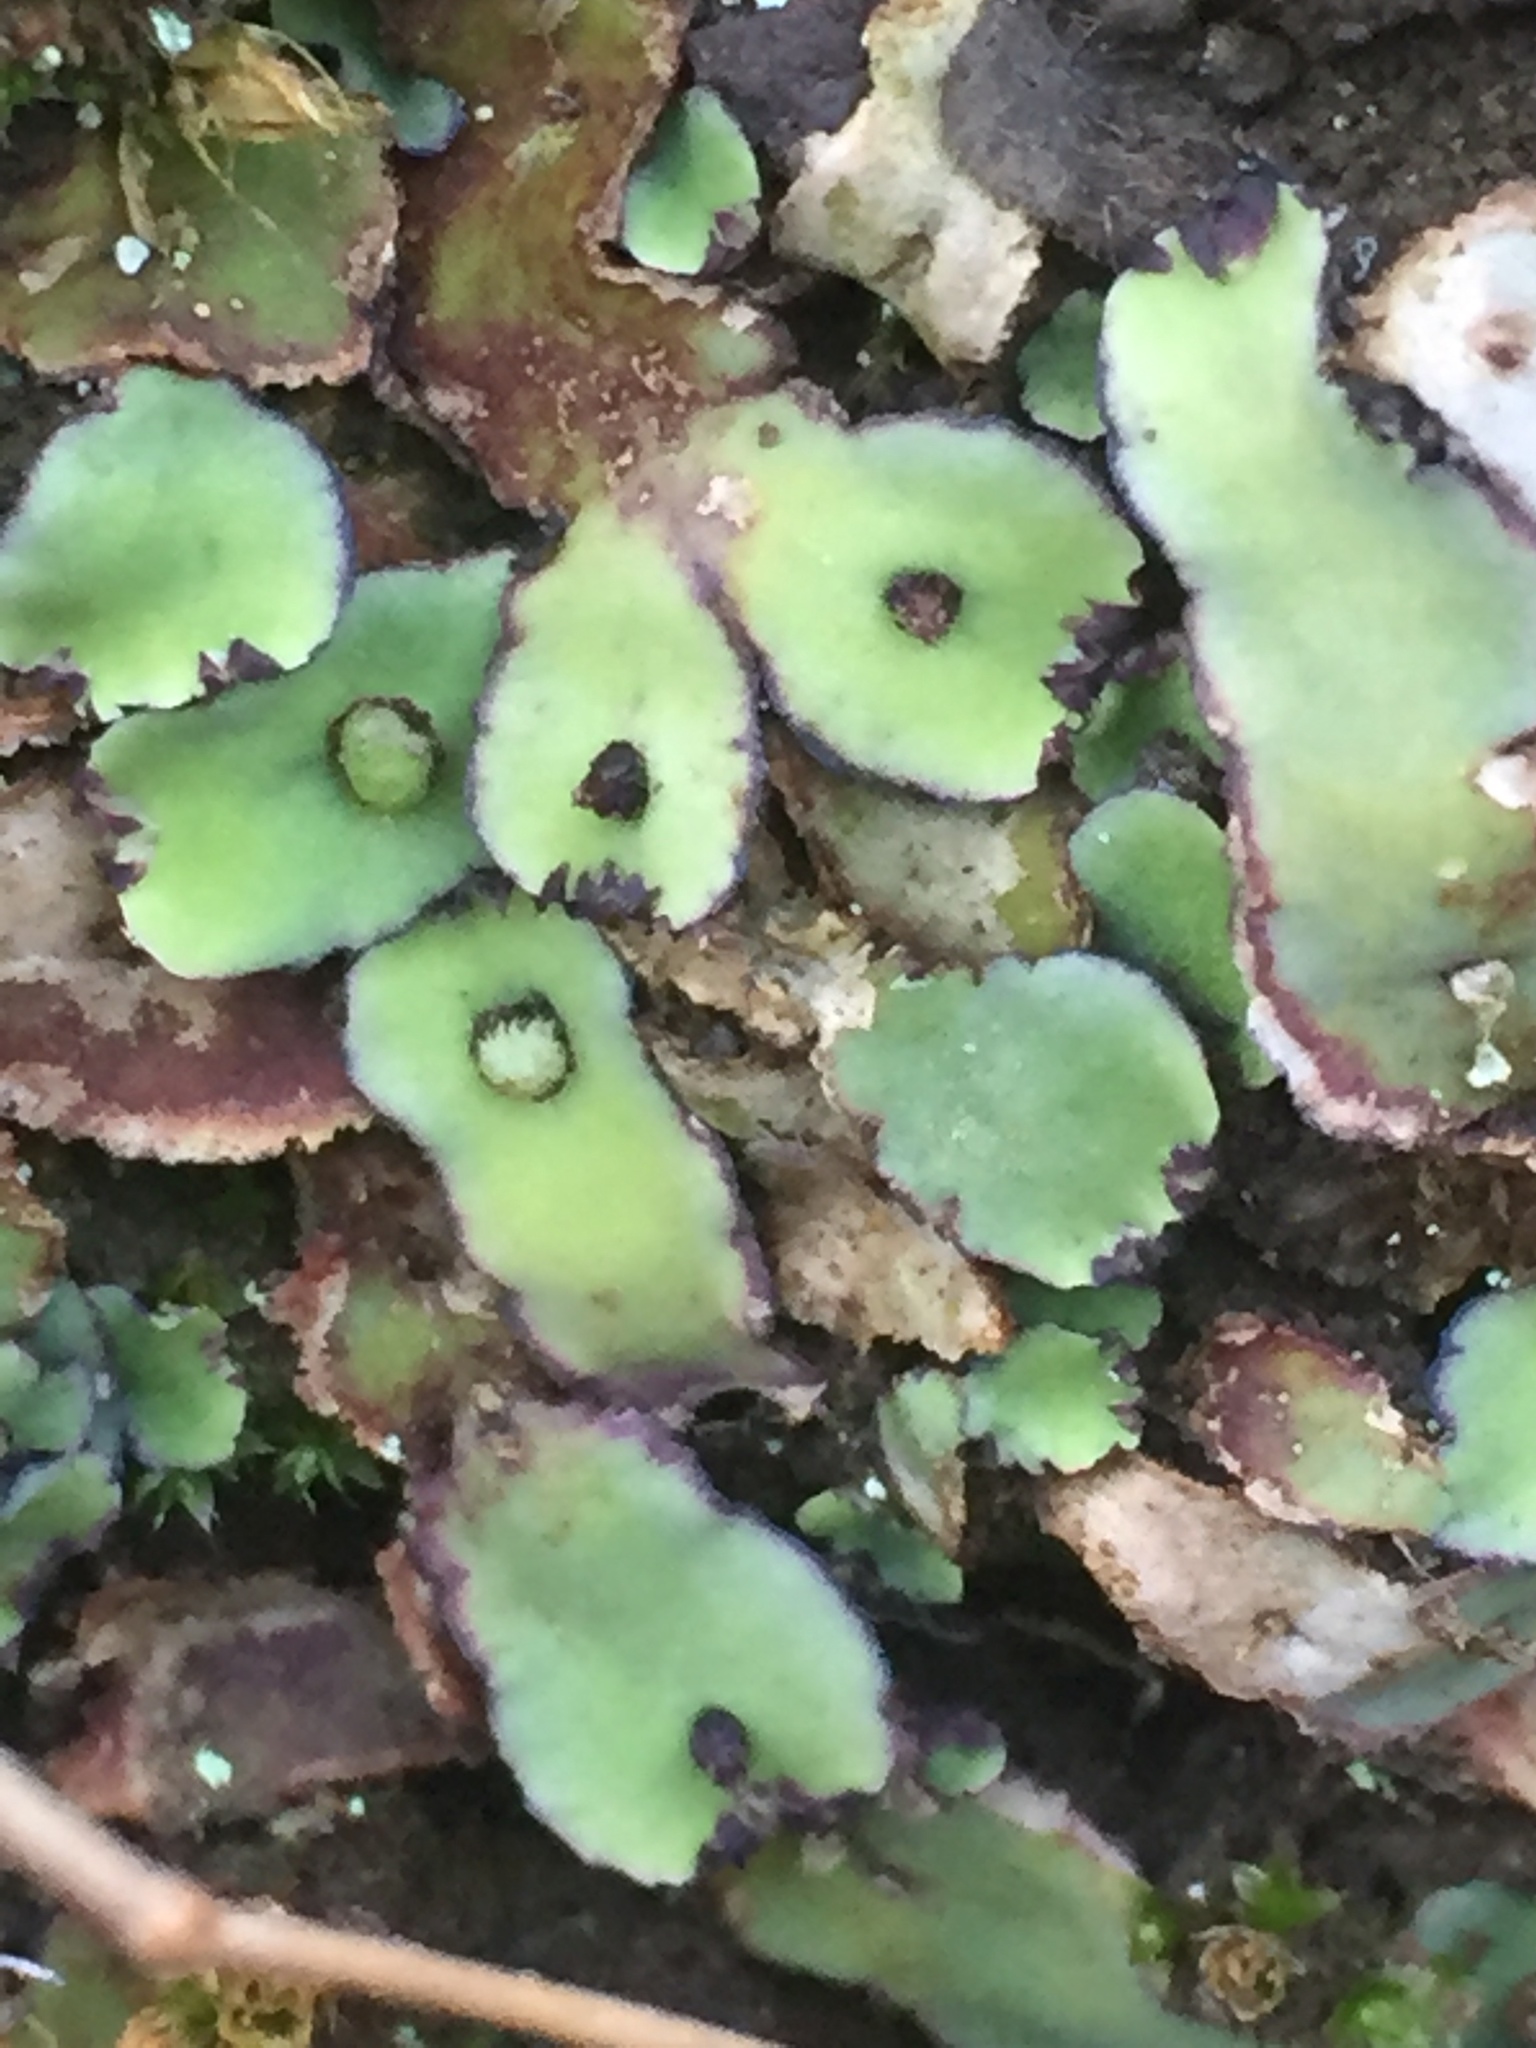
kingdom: Plantae
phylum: Marchantiophyta
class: Marchantiopsida
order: Marchantiales
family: Aytoniaceae
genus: Plagiochasma
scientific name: Plagiochasma rupestre
